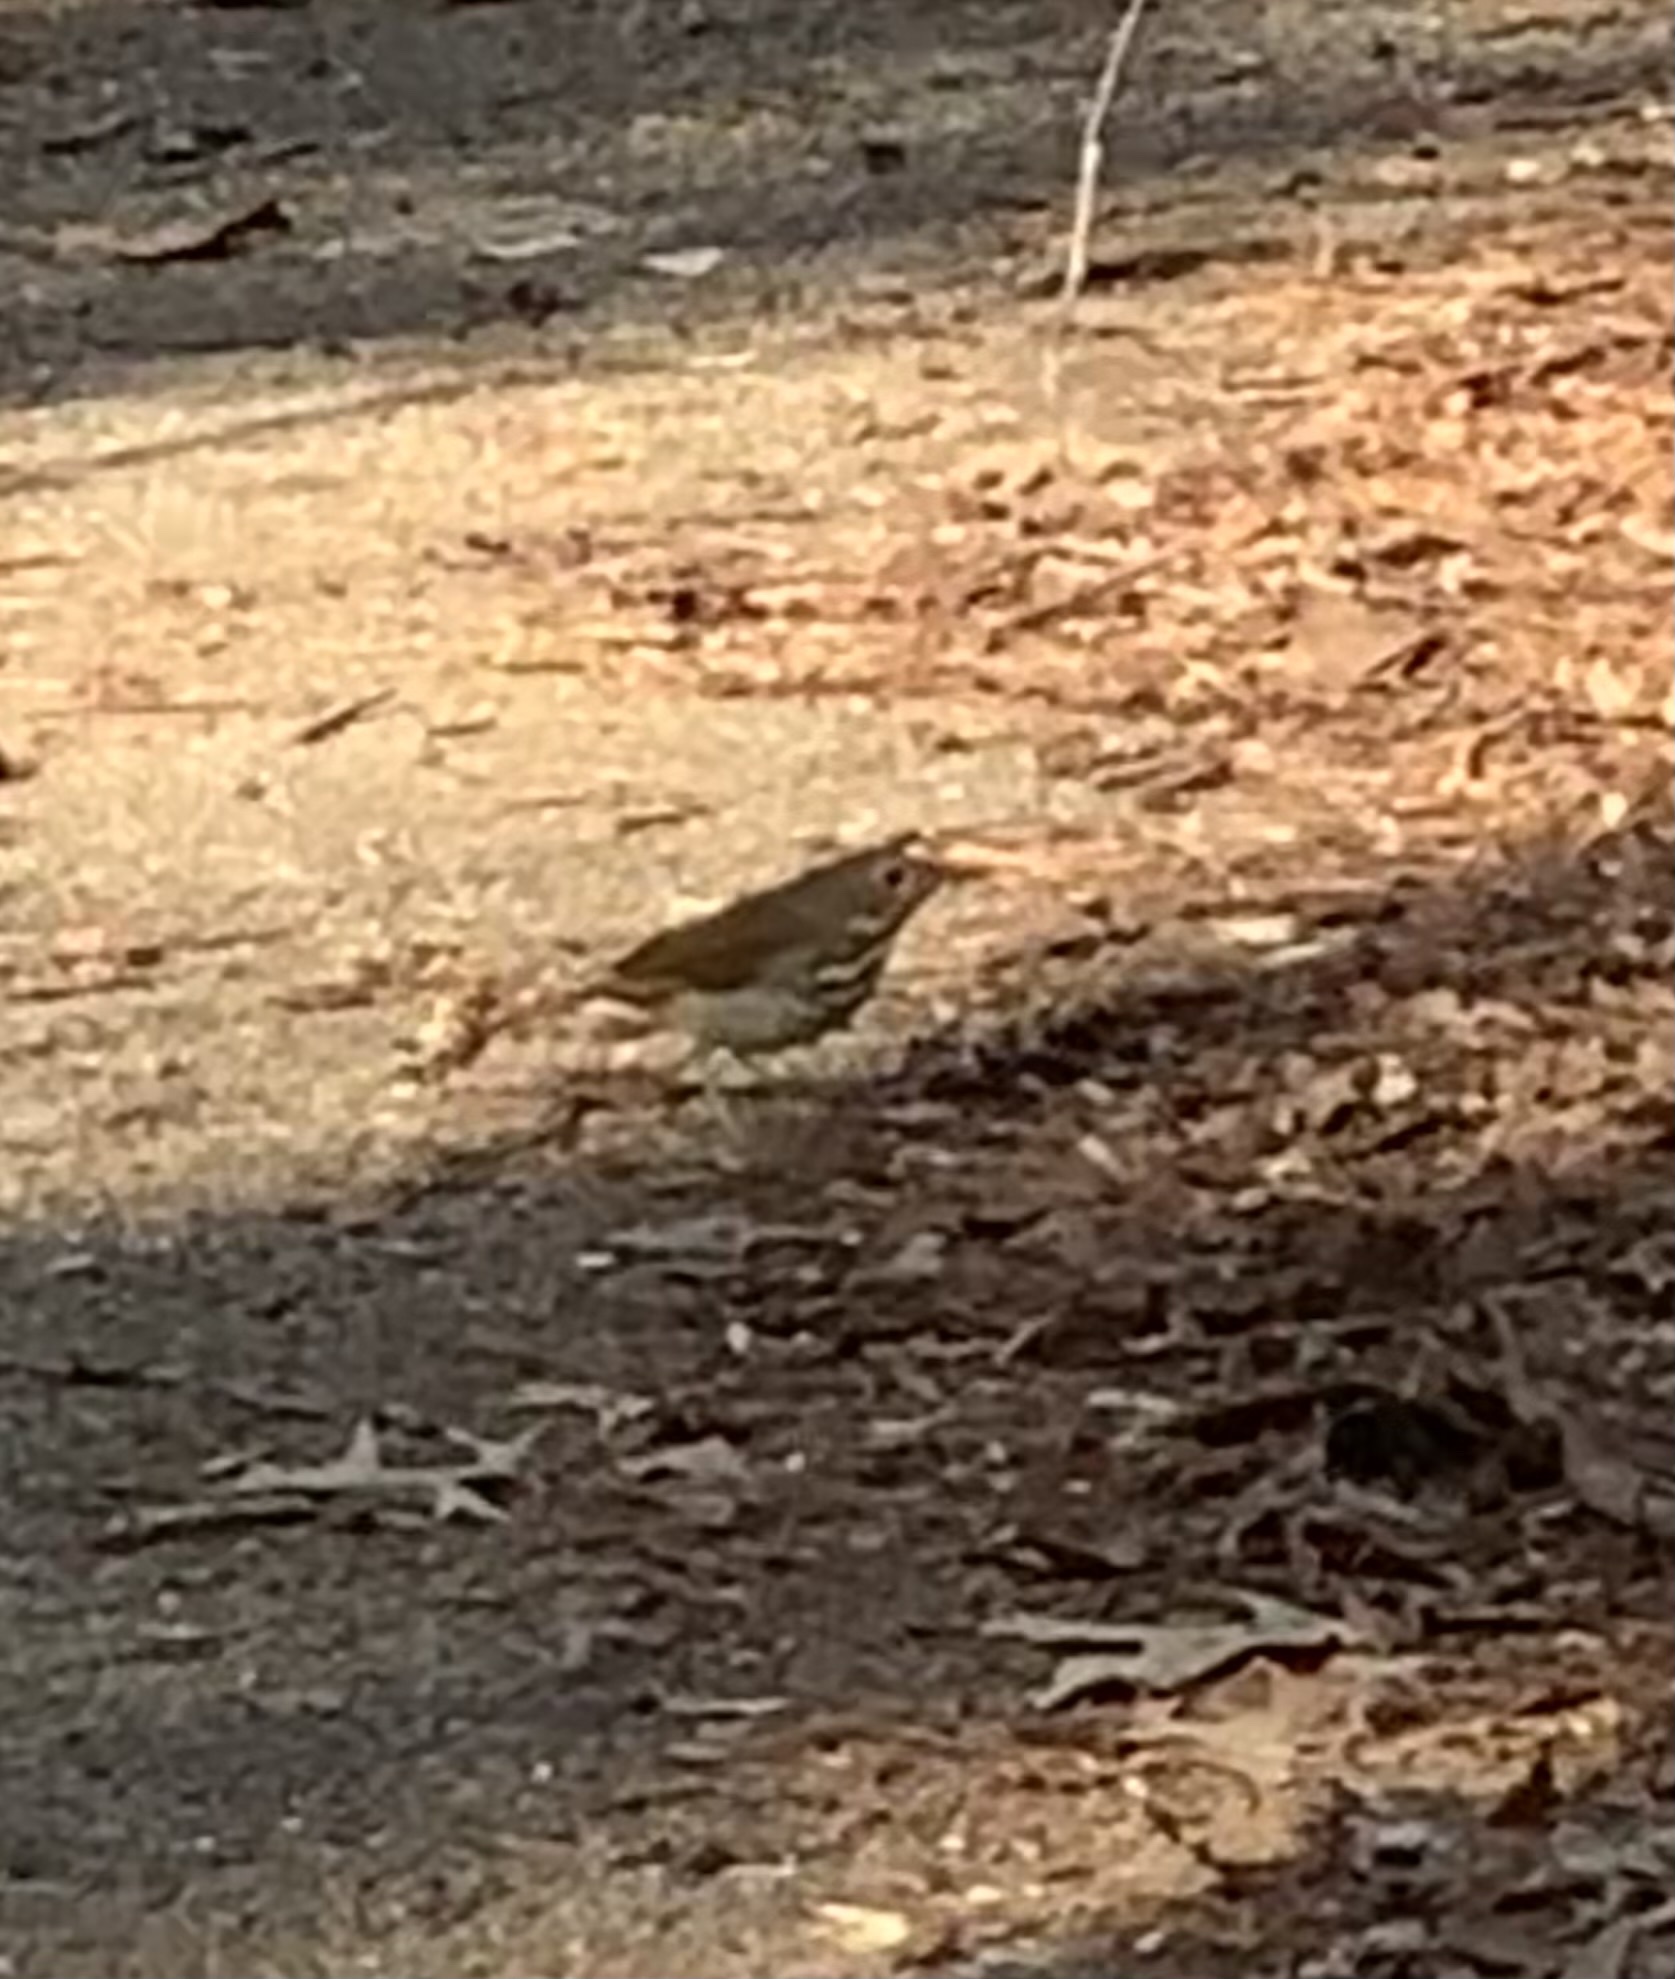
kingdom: Animalia
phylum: Chordata
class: Aves
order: Passeriformes
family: Turdidae
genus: Catharus
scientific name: Catharus guttatus
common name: Hermit thrush
